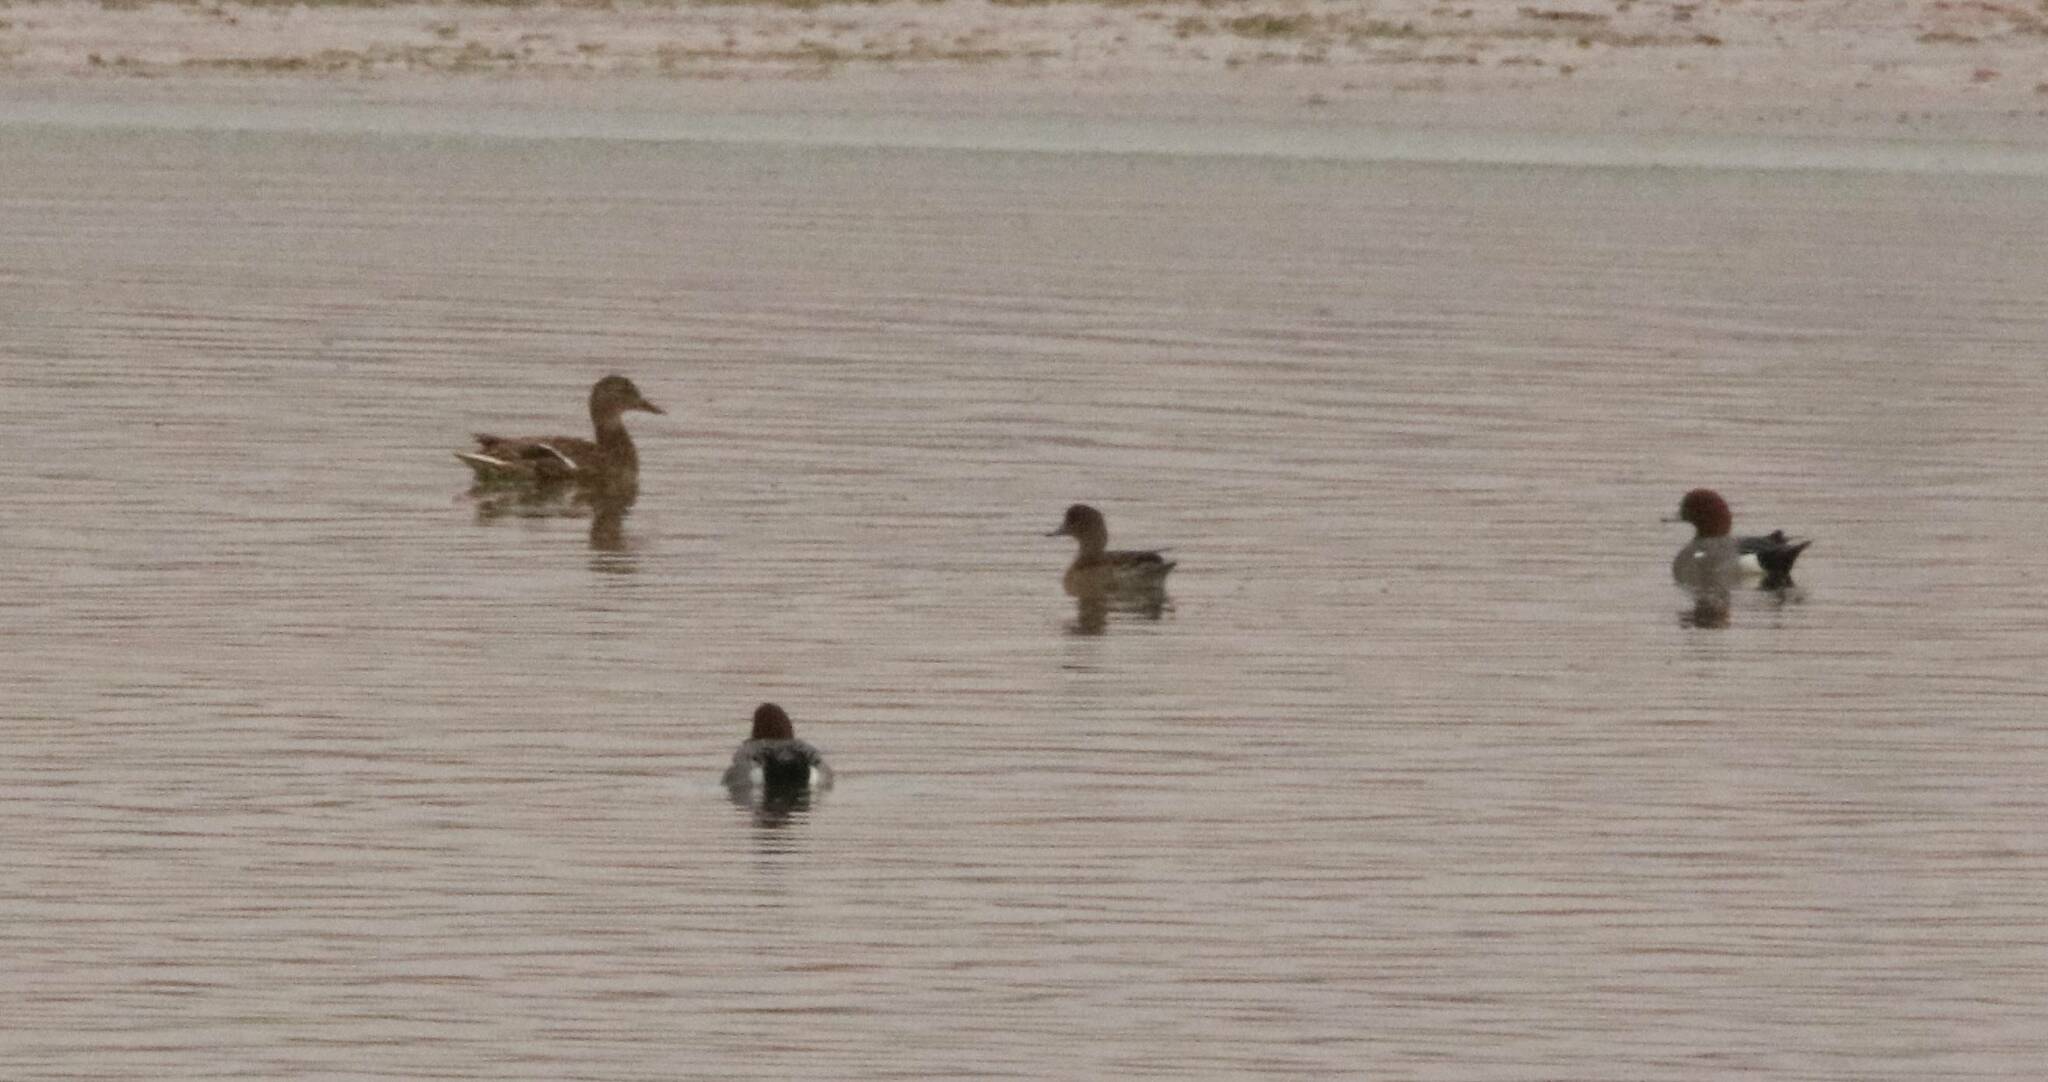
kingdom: Animalia
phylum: Chordata
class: Aves
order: Anseriformes
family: Anatidae
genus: Mareca
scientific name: Mareca penelope
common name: Eurasian wigeon
